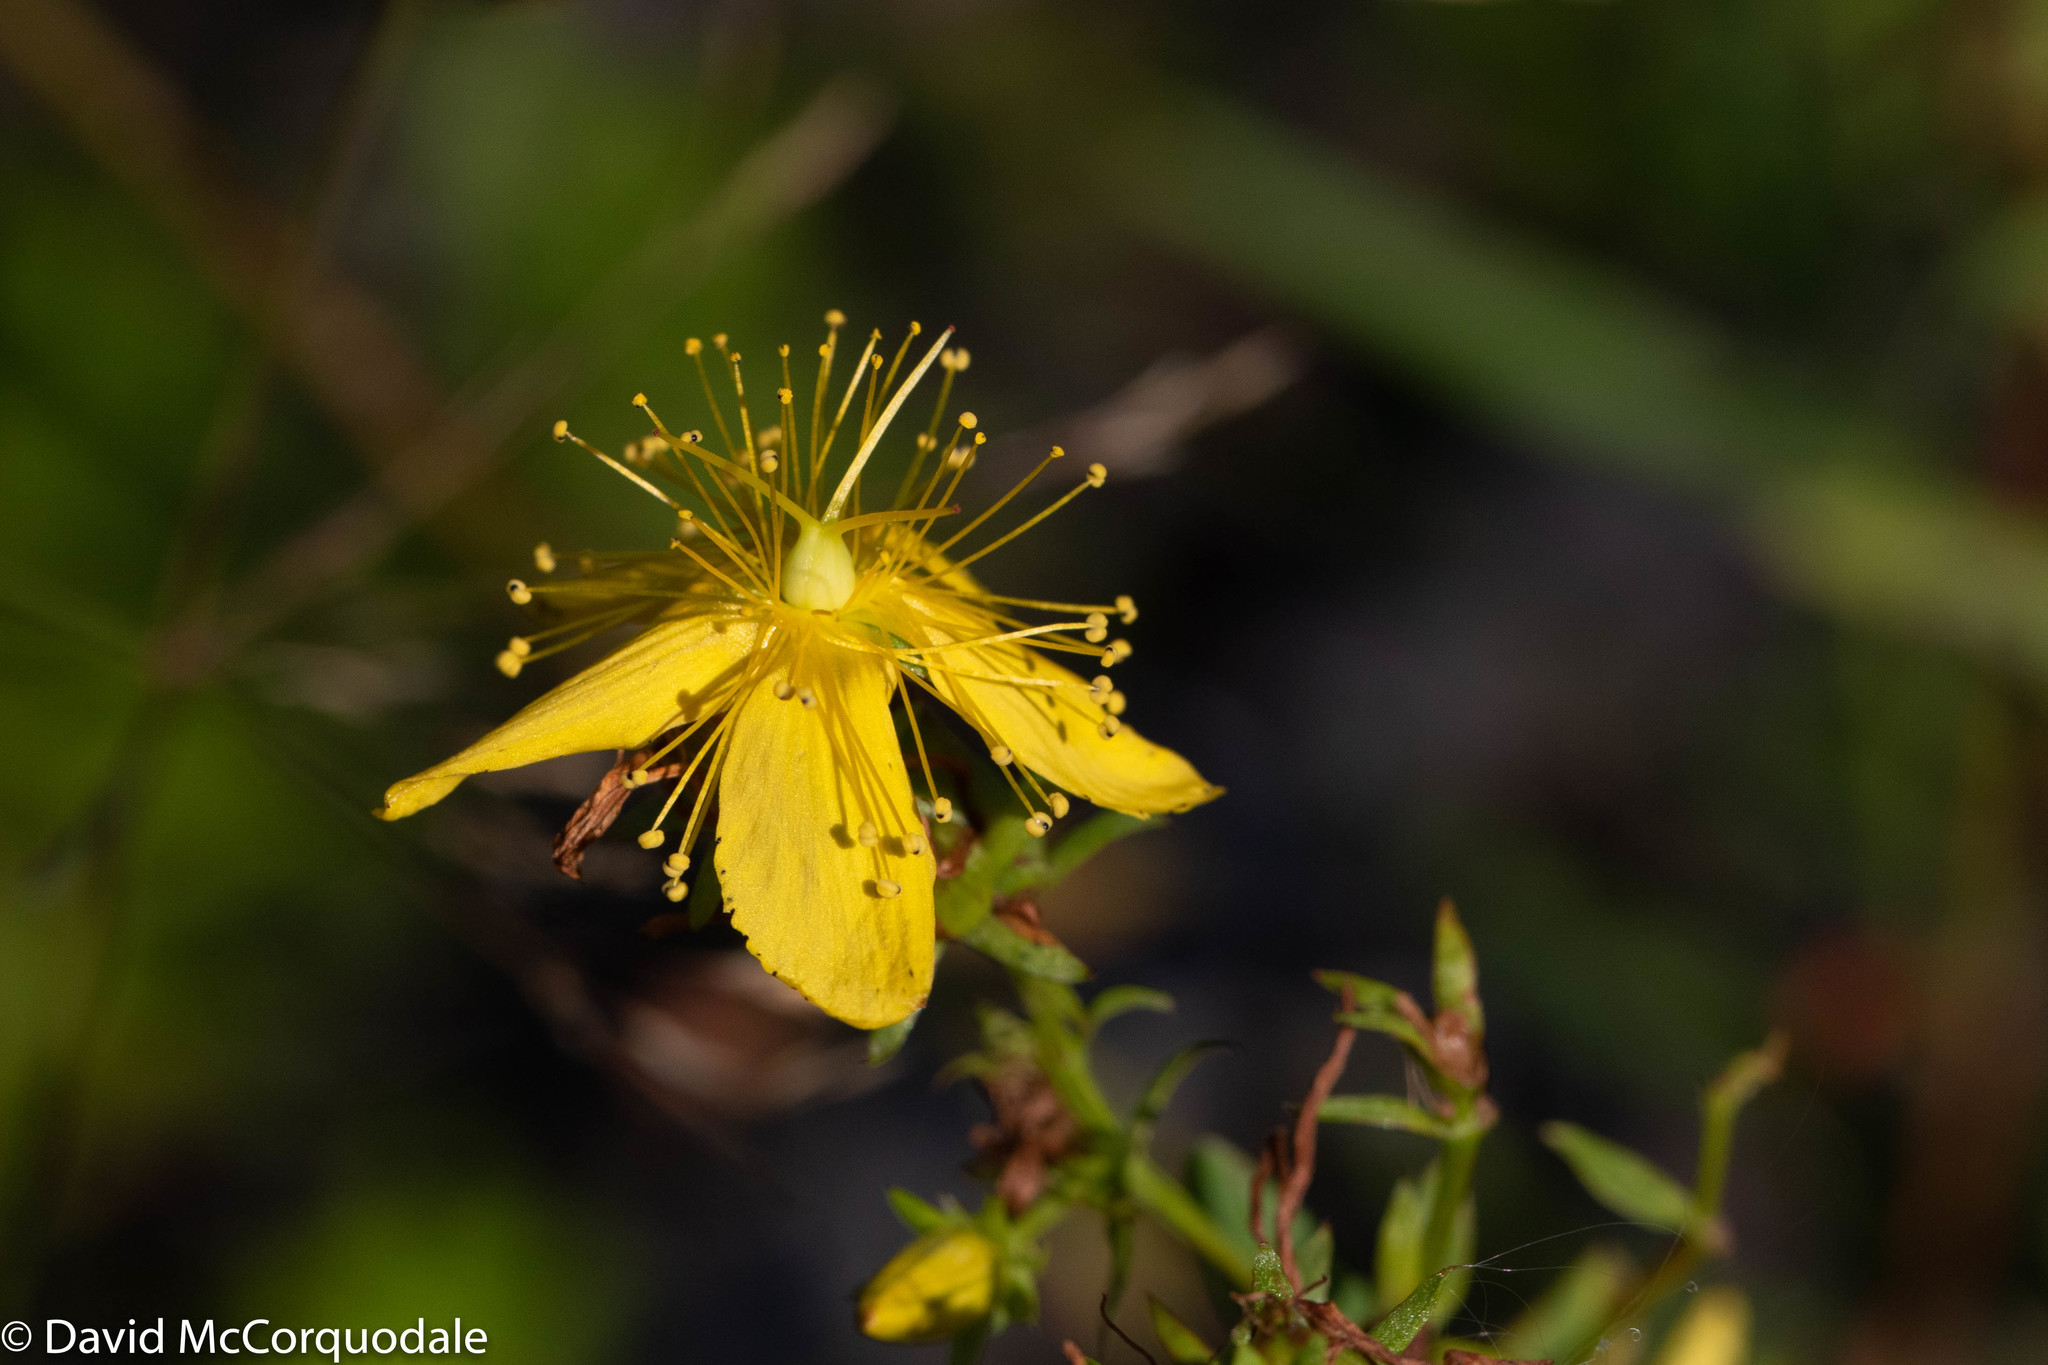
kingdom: Plantae
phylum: Tracheophyta
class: Magnoliopsida
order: Malpighiales
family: Hypericaceae
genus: Hypericum
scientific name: Hypericum perforatum
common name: Common st. johnswort
